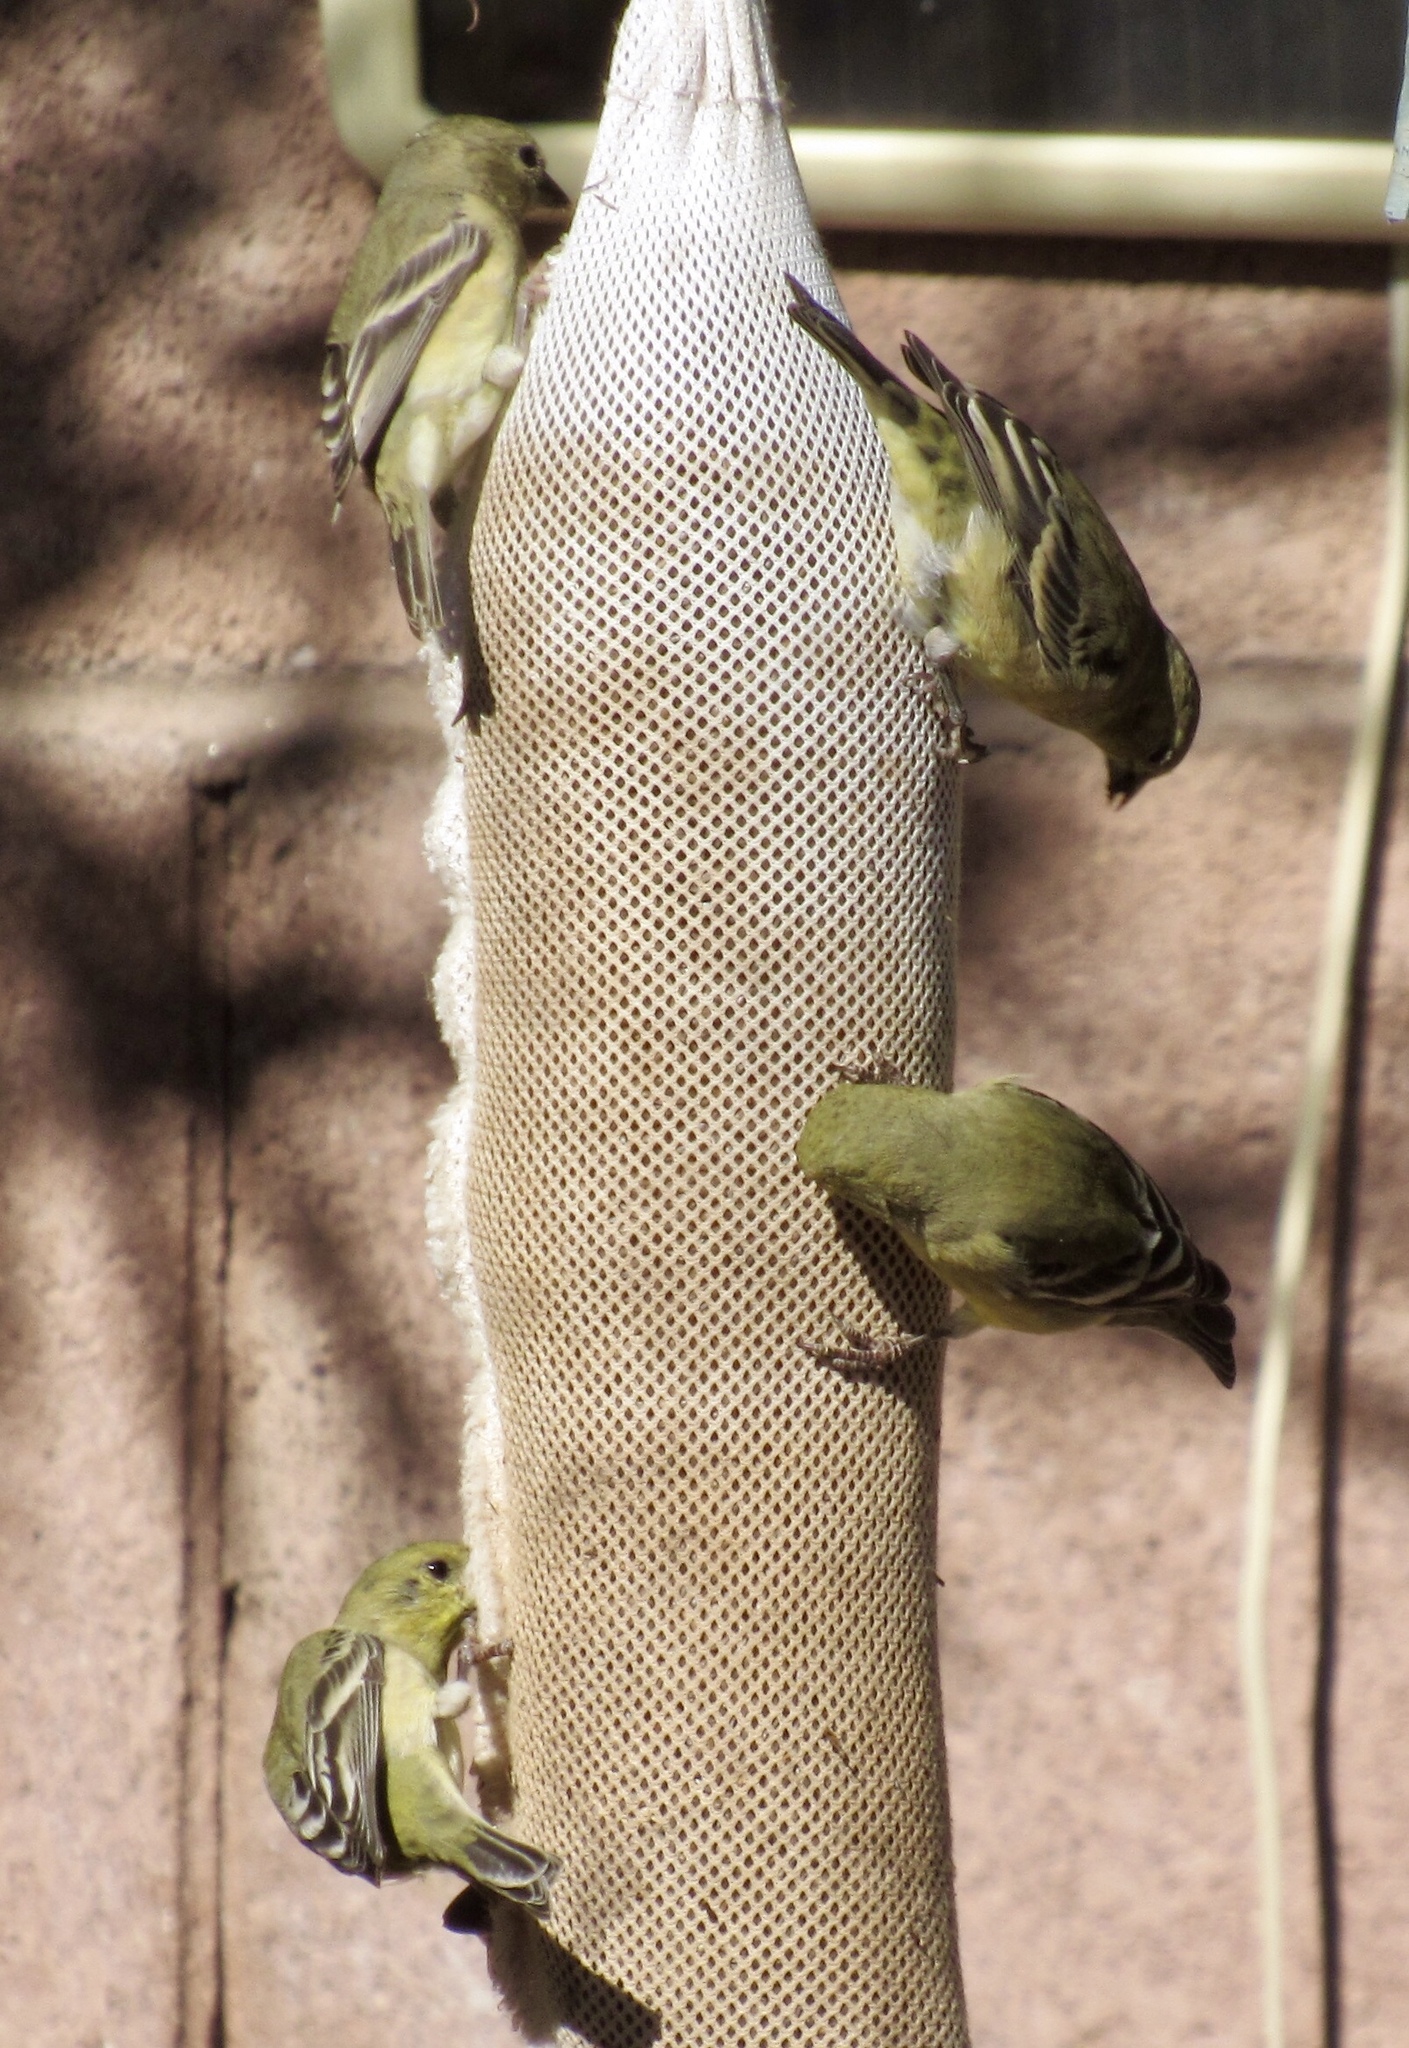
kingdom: Animalia
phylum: Chordata
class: Aves
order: Passeriformes
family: Fringillidae
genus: Spinus
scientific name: Spinus psaltria
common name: Lesser goldfinch
